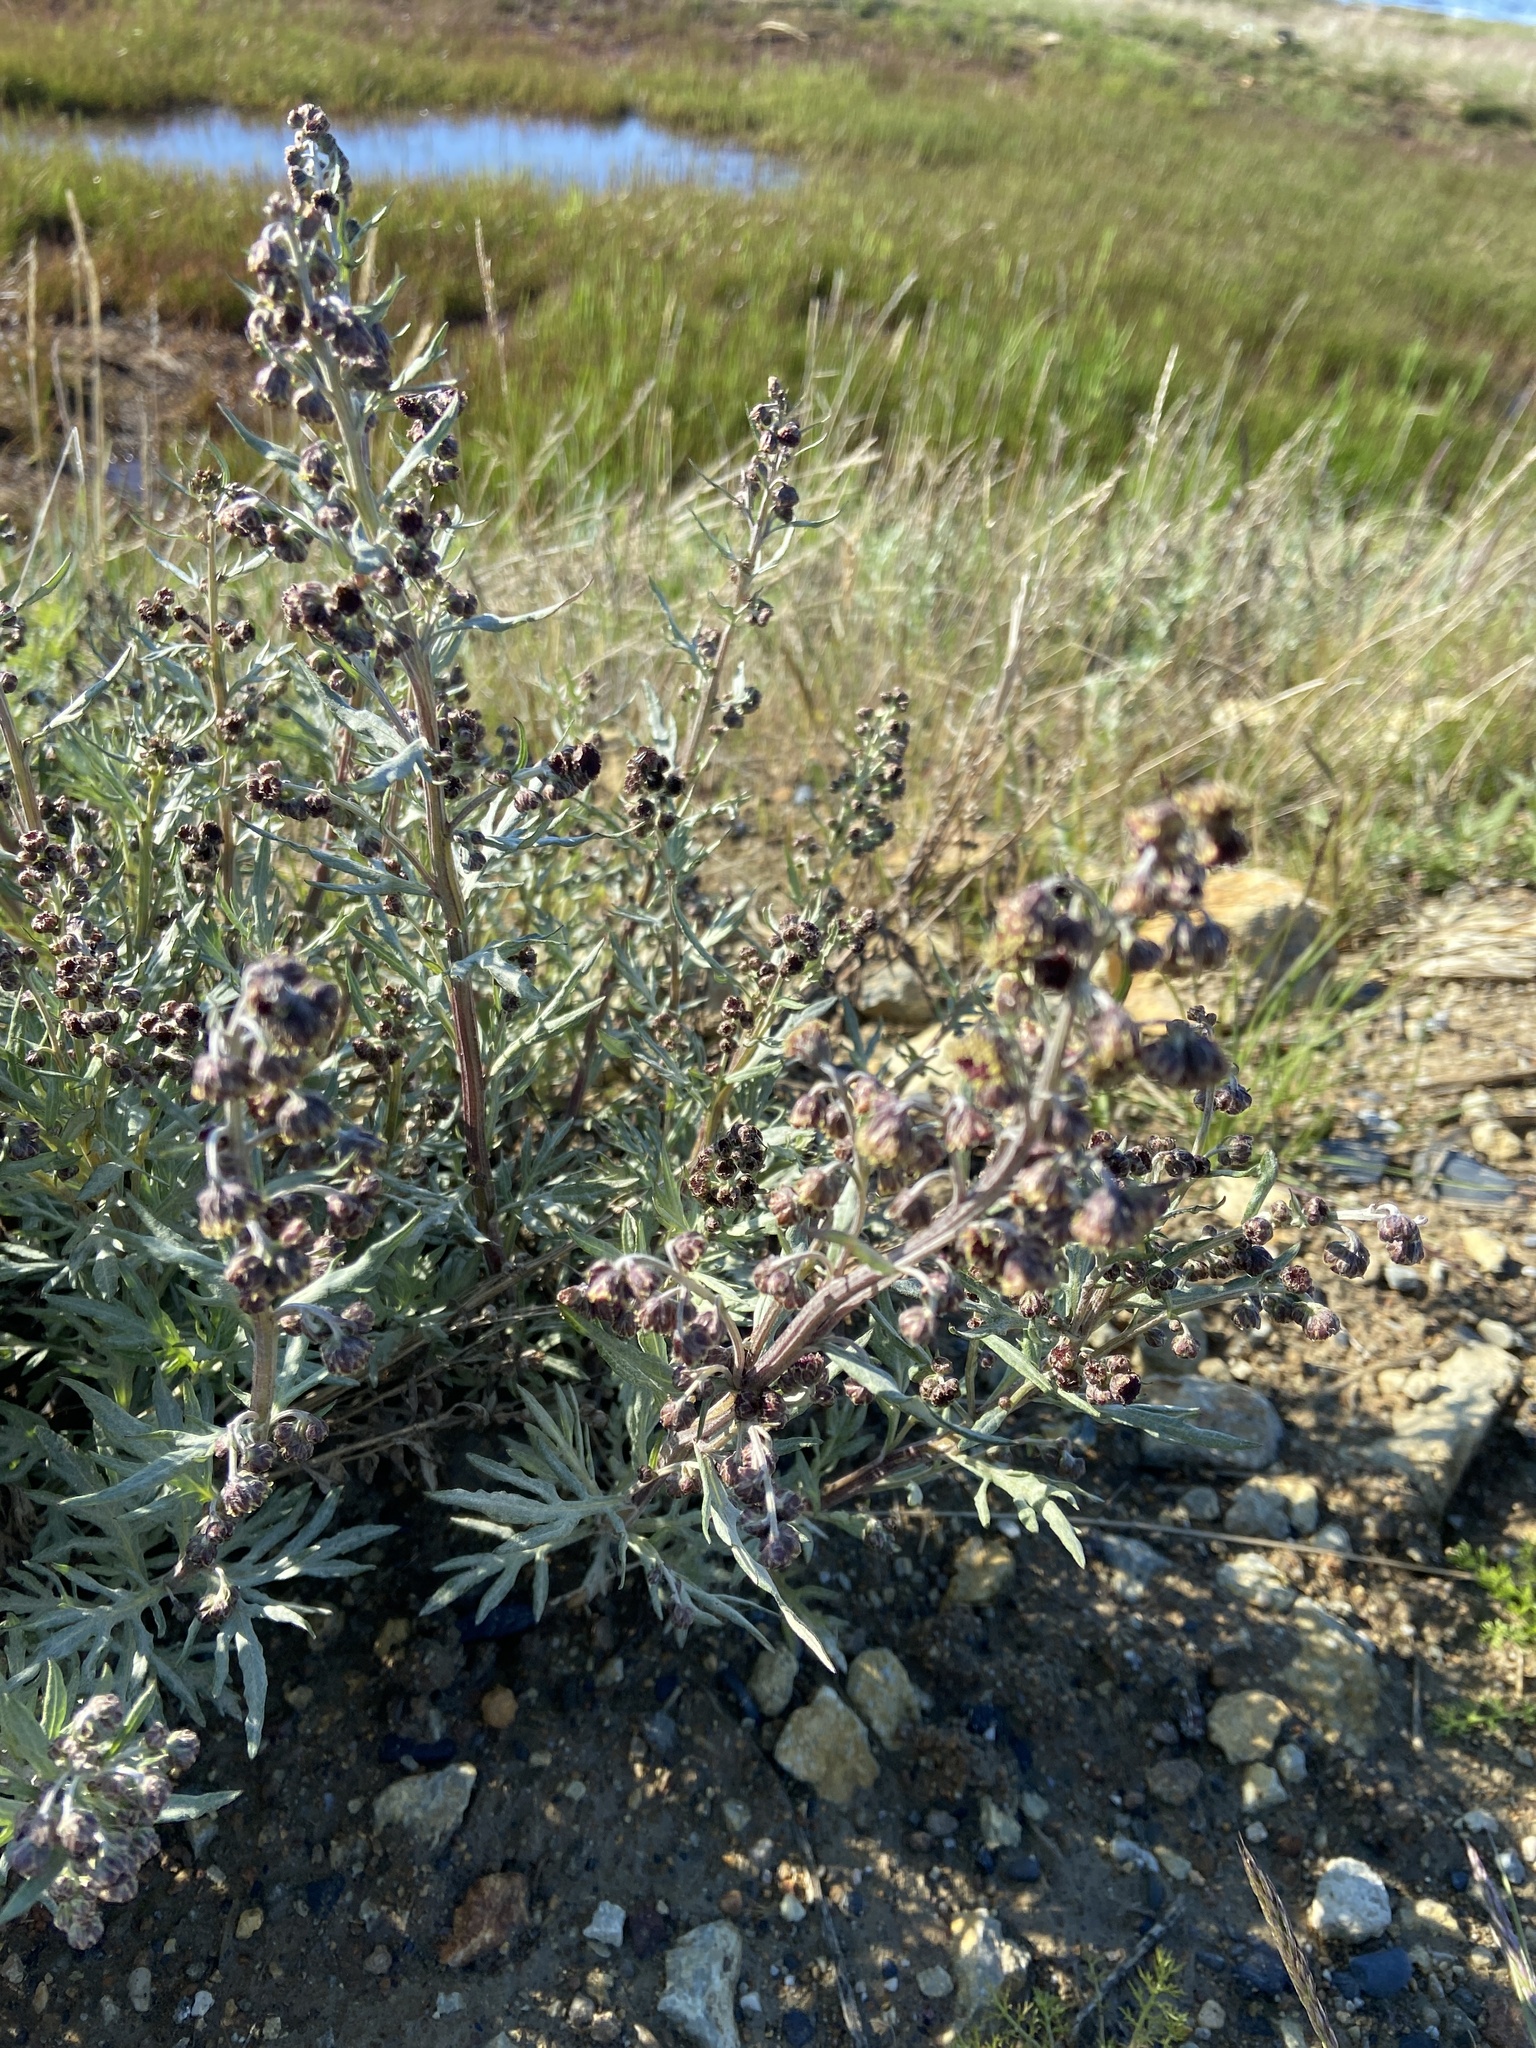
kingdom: Plantae
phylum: Tracheophyta
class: Magnoliopsida
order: Asterales
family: Asteraceae
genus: Artemisia
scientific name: Artemisia tilesii
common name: Aleutian mugwort
